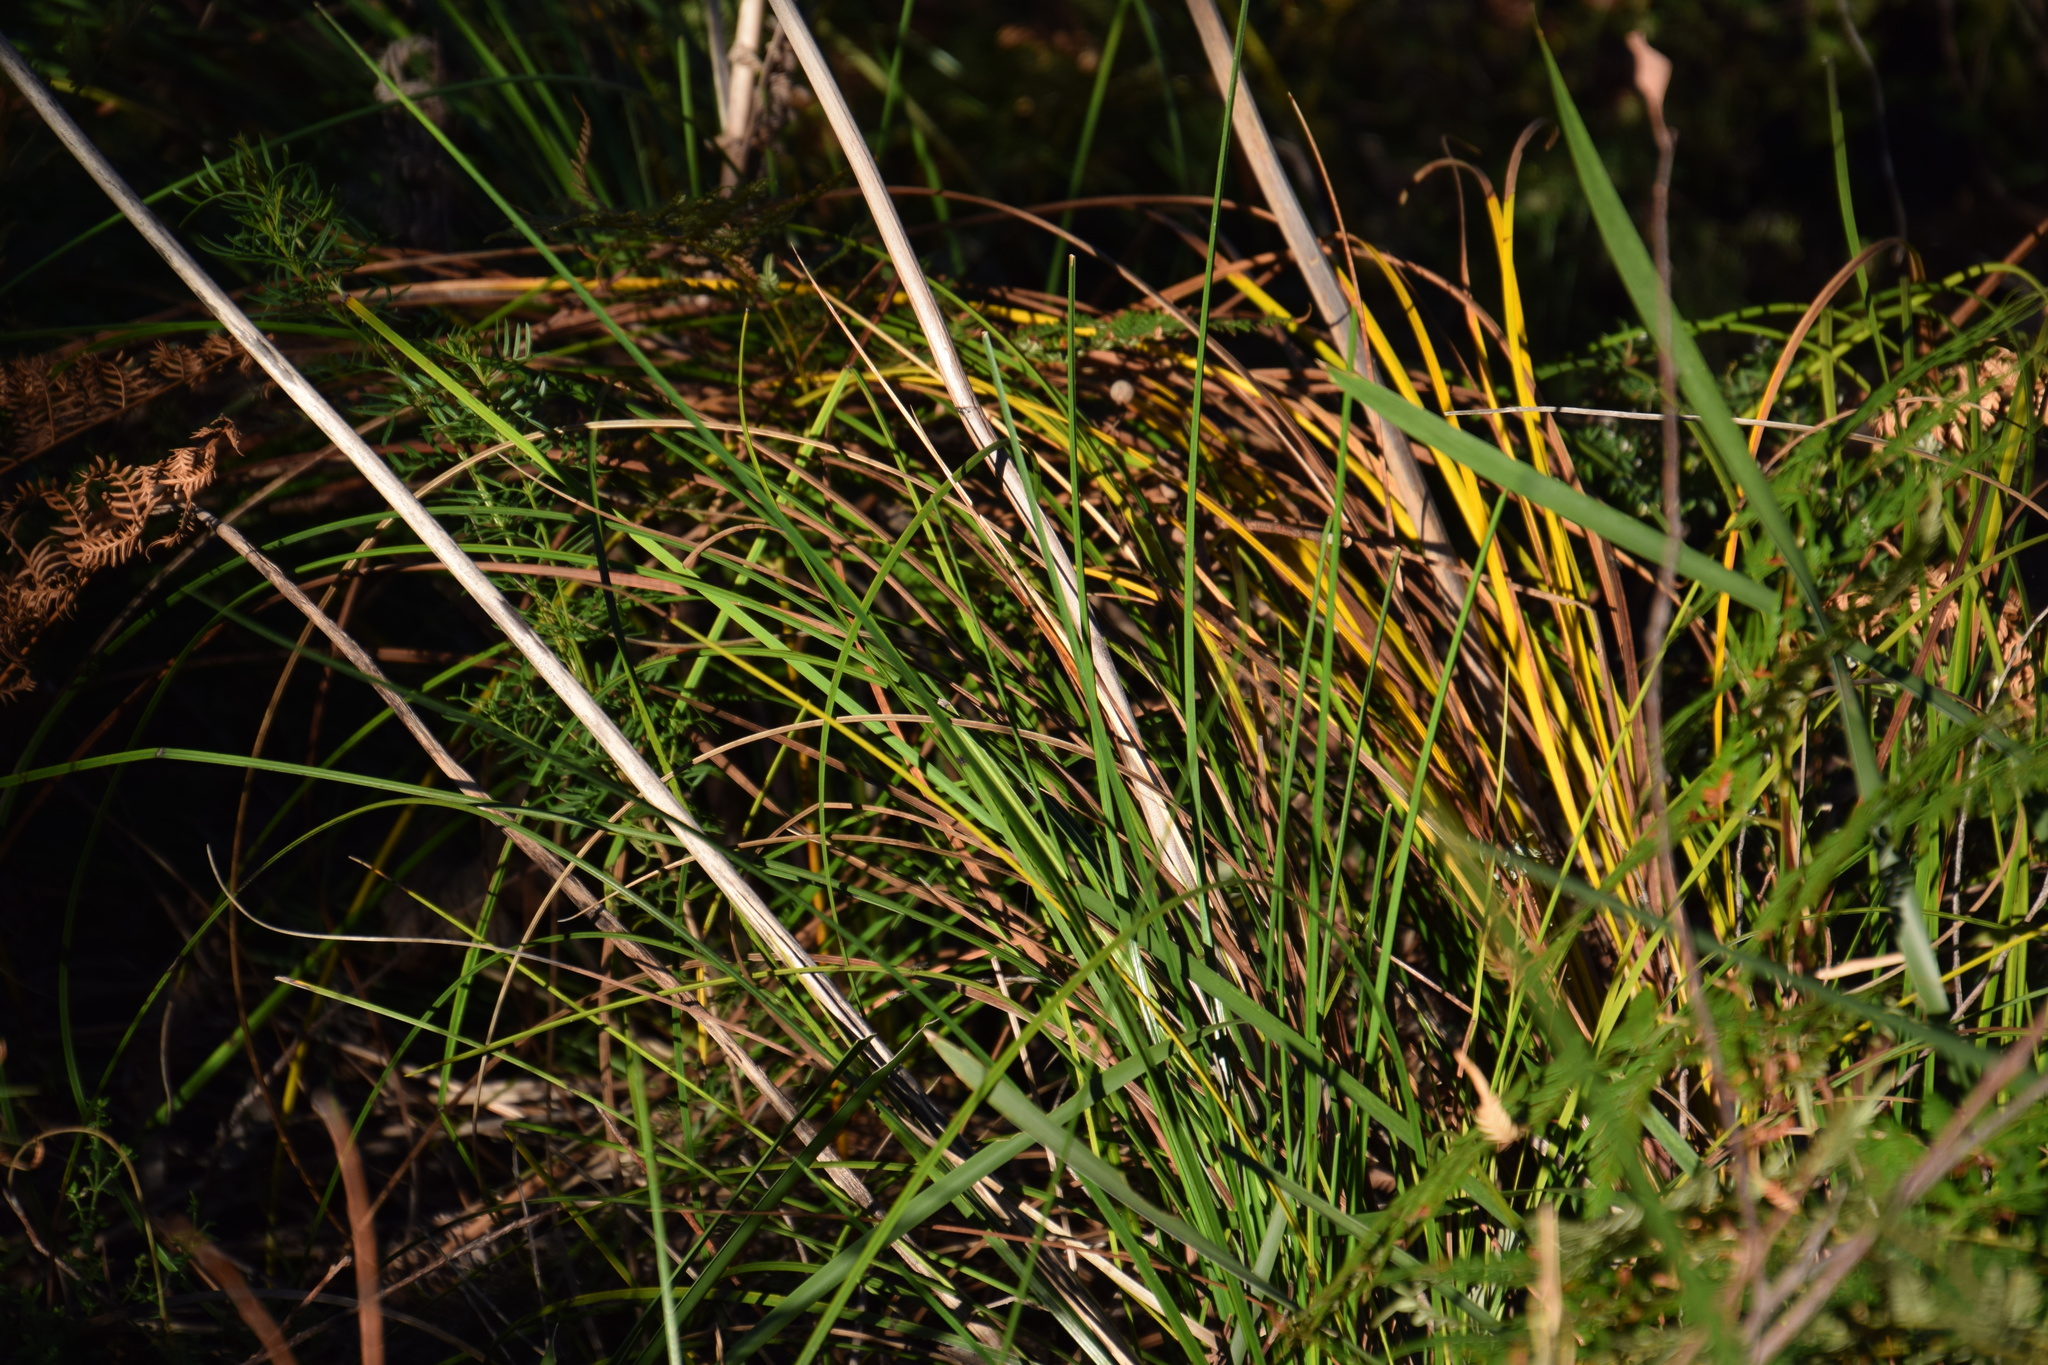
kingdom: Plantae
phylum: Tracheophyta
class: Liliopsida
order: Asparagales
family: Asphodelaceae
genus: Xanthorrhoea
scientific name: Xanthorrhoea macronema
